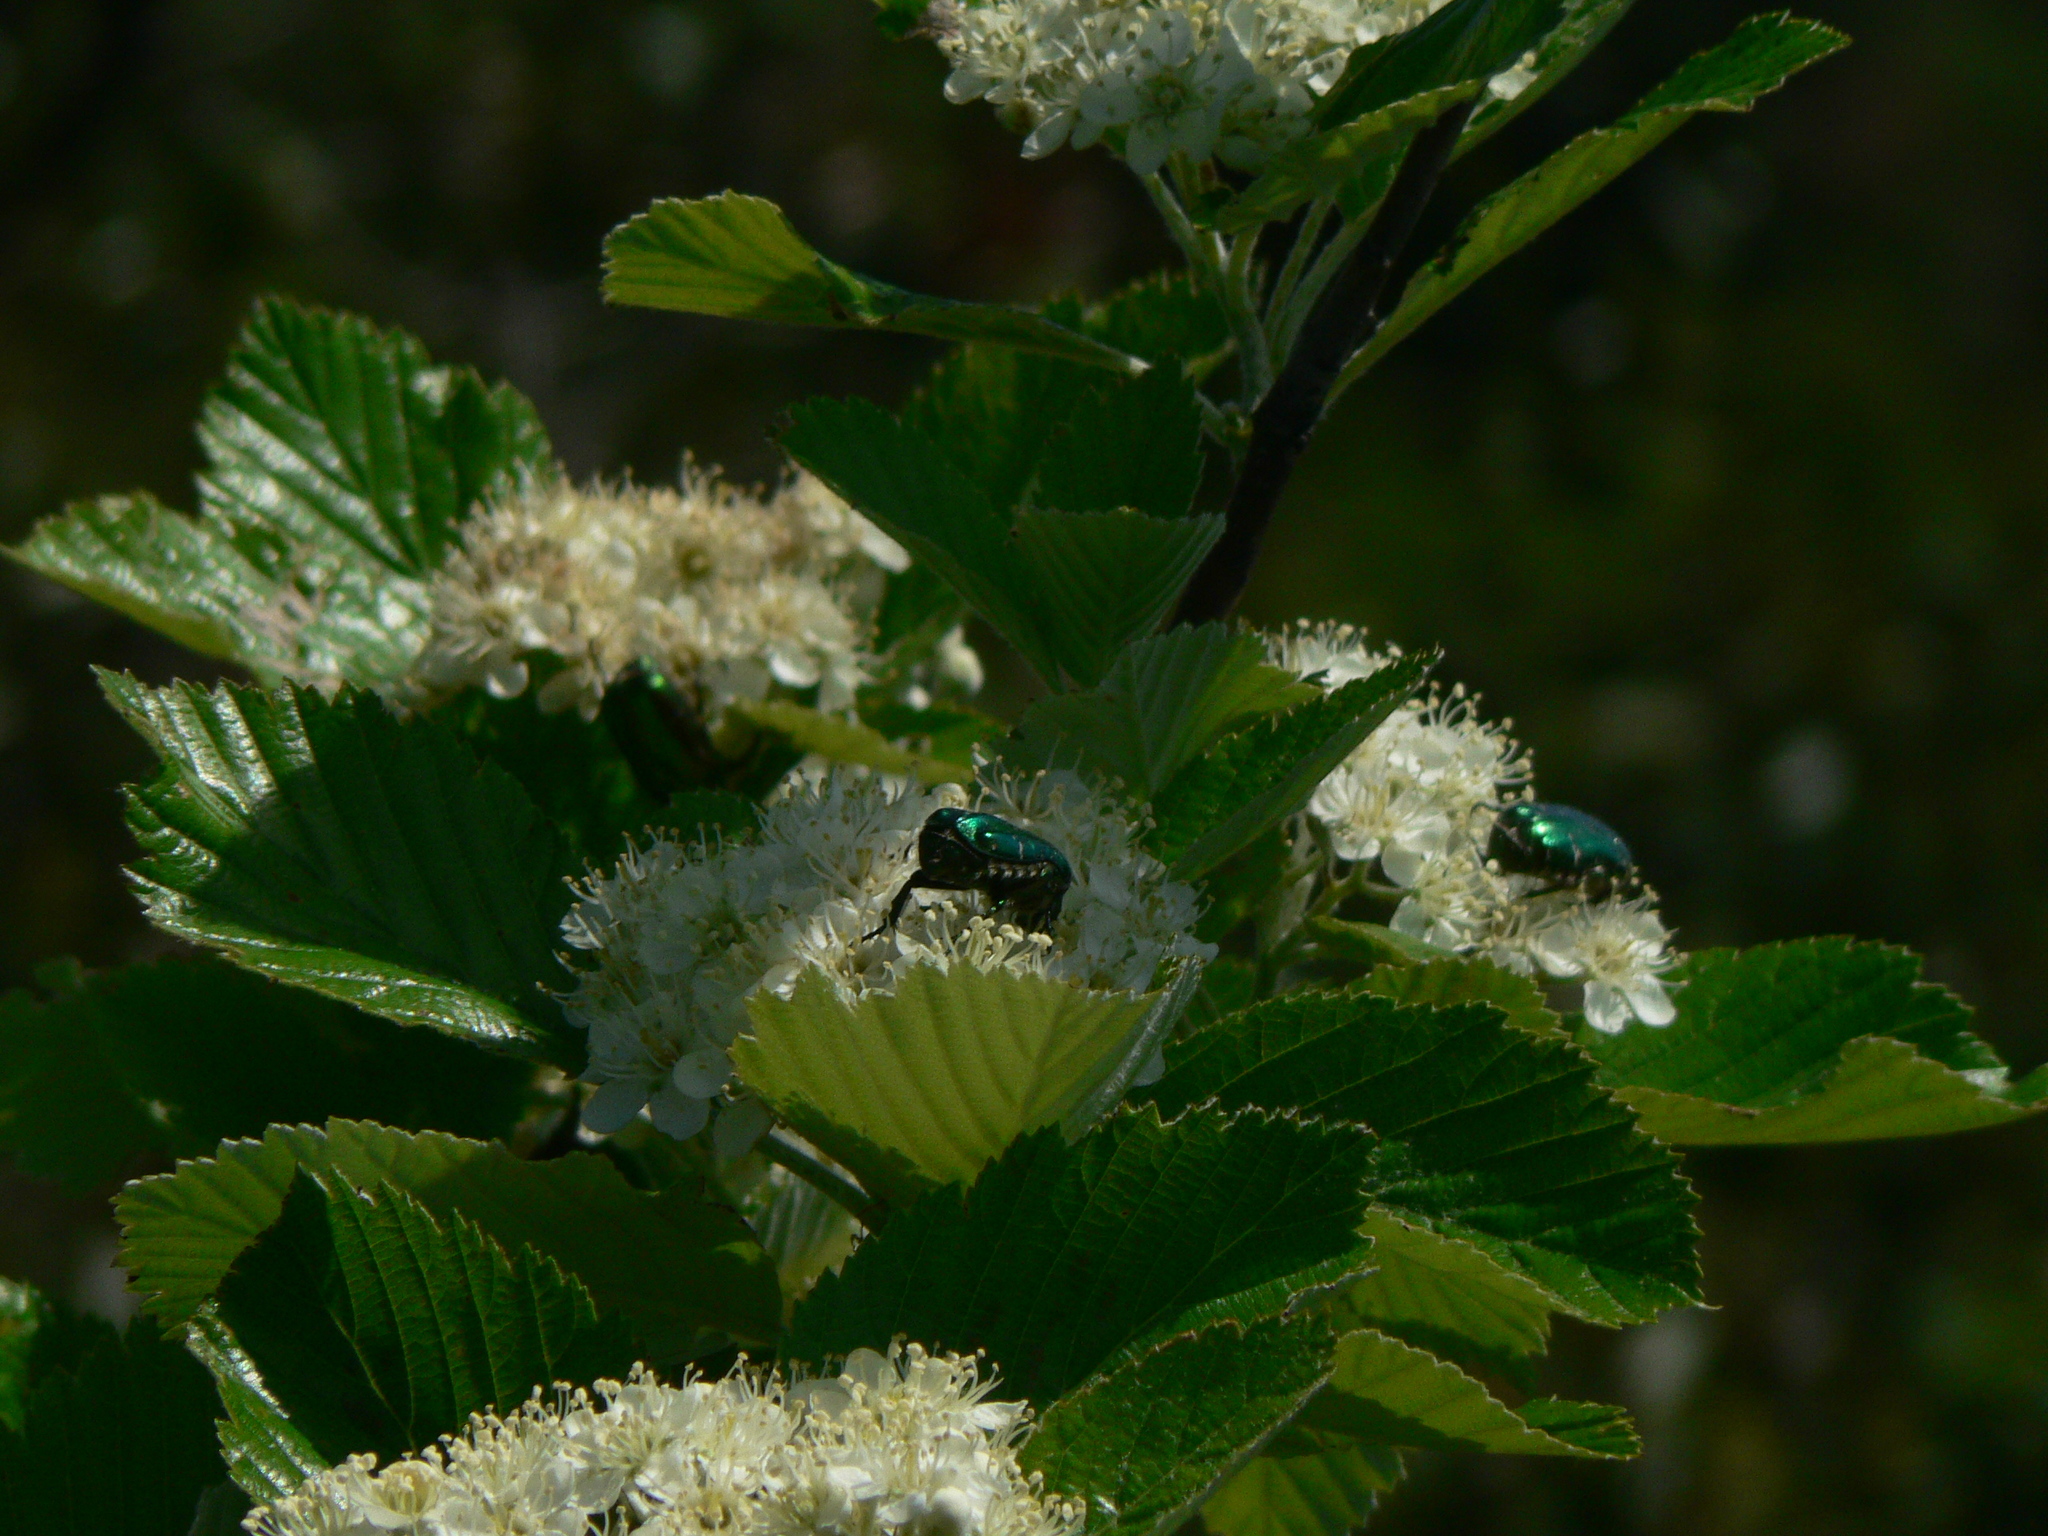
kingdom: Animalia
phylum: Arthropoda
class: Insecta
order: Coleoptera
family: Scarabaeidae
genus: Cetonia
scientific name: Cetonia aurata
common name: Rose chafer
